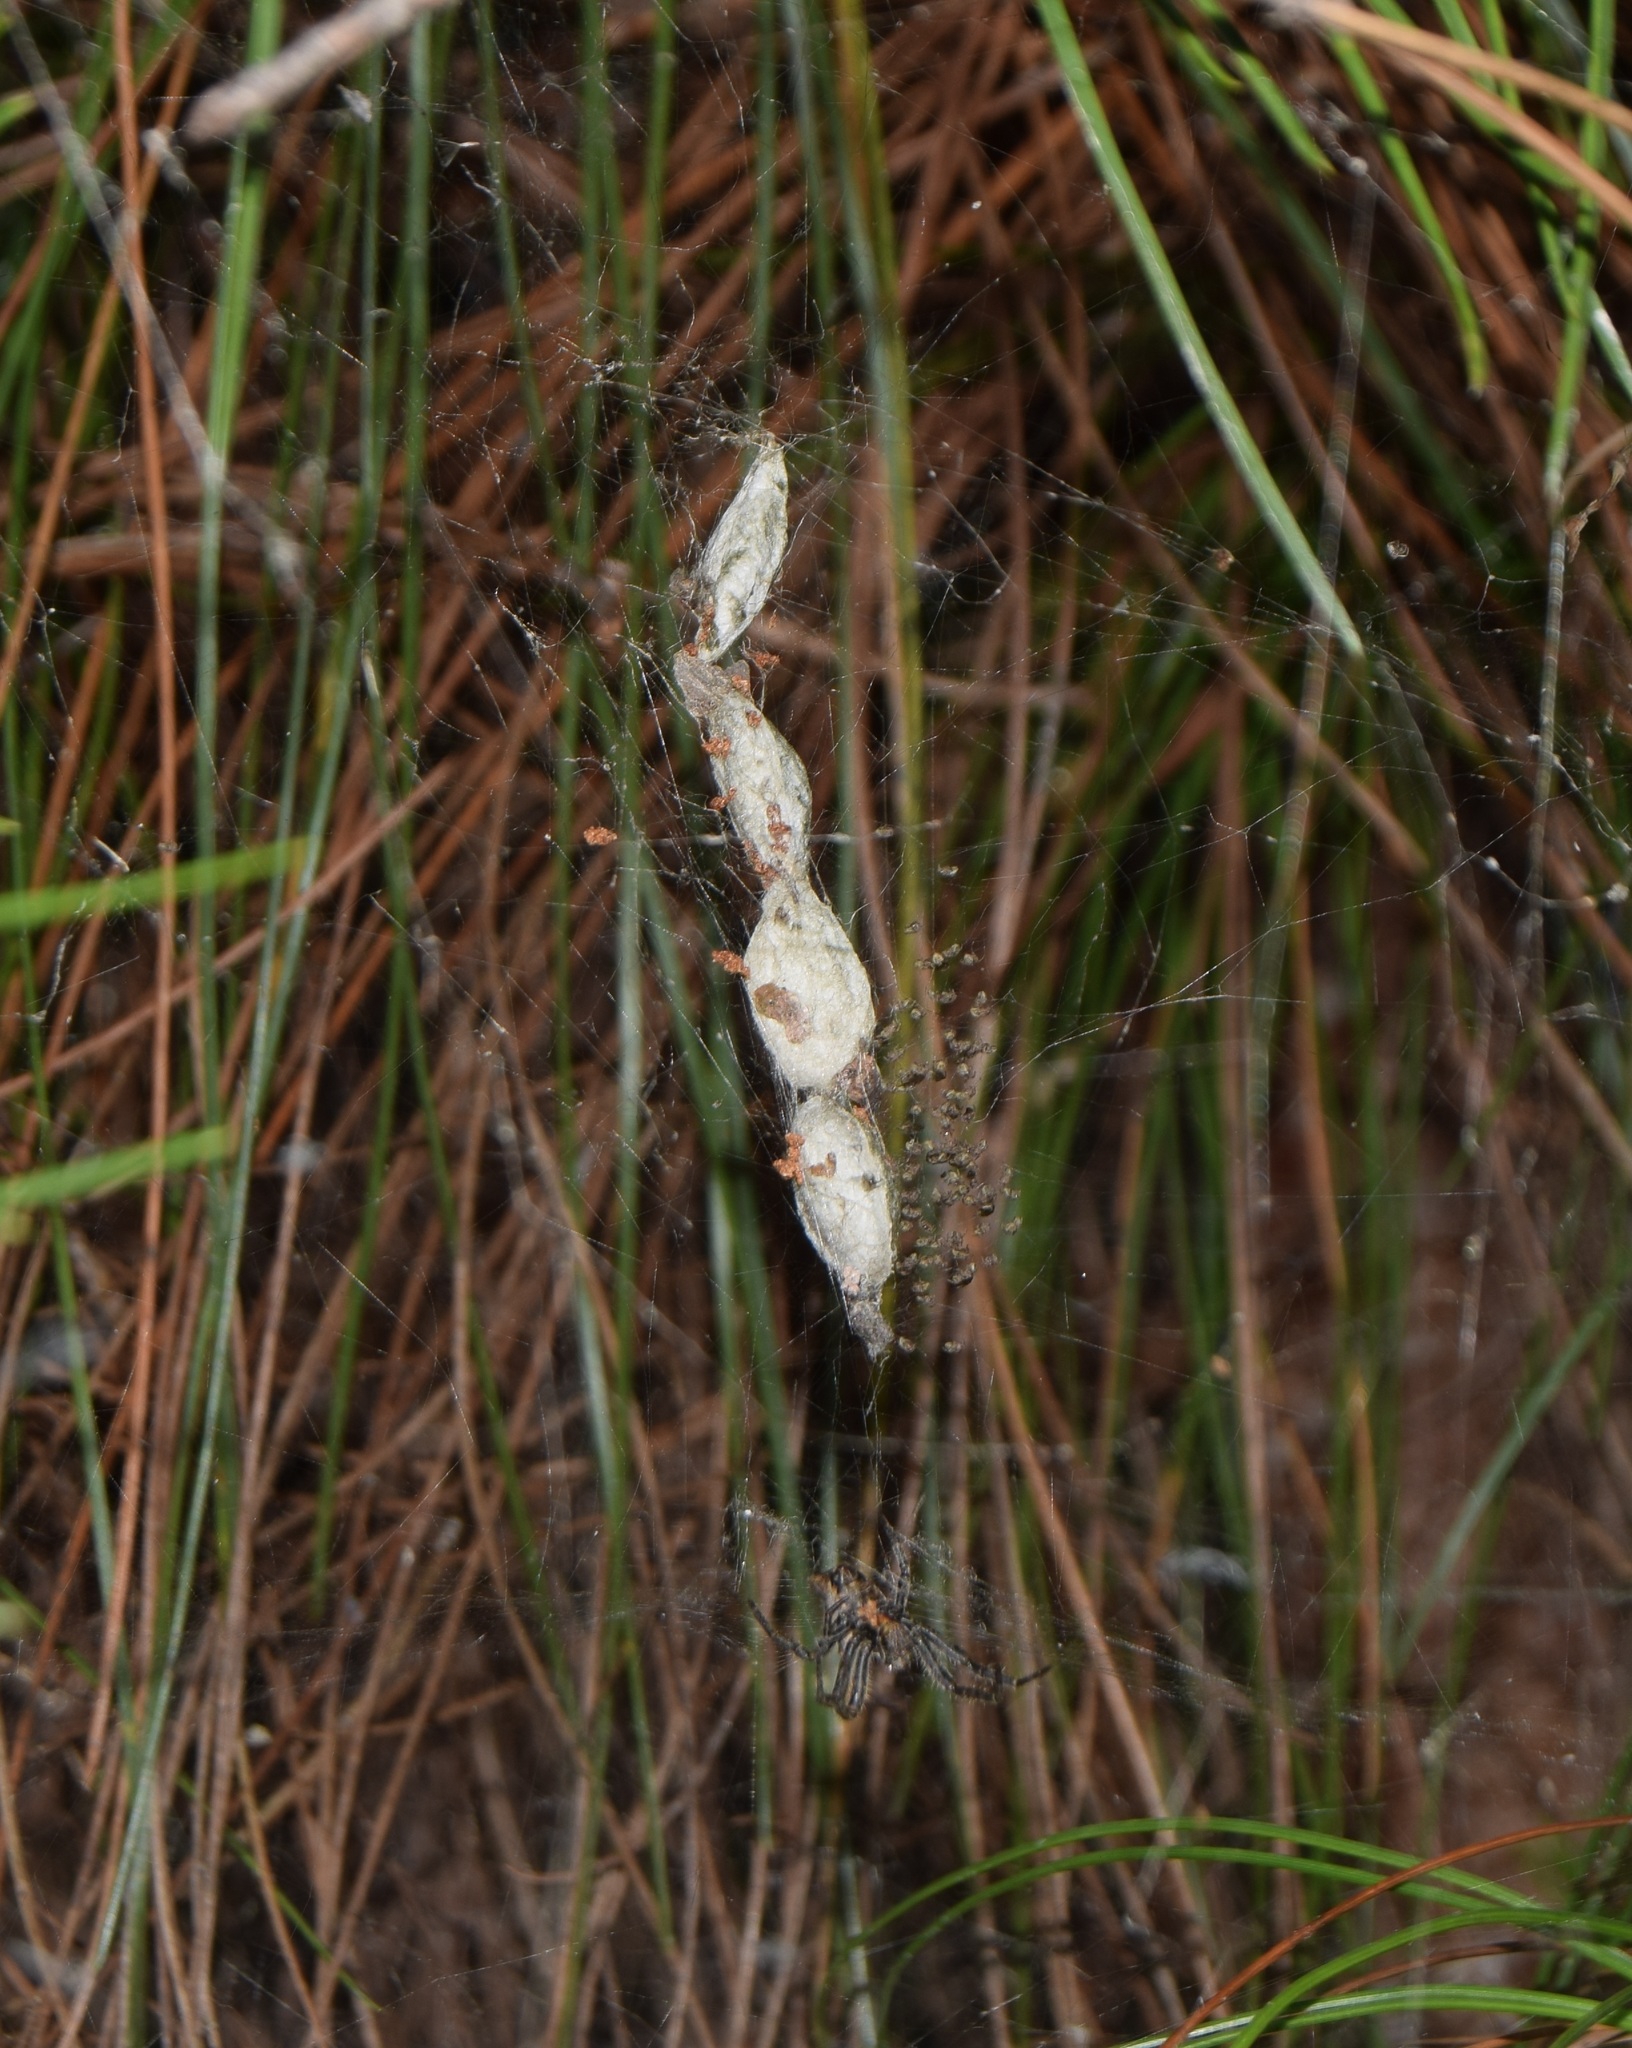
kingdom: Animalia
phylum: Arthropoda
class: Arachnida
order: Araneae
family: Araneidae
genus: Cyrtophora
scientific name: Cyrtophora citricola
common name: Orb weavers
